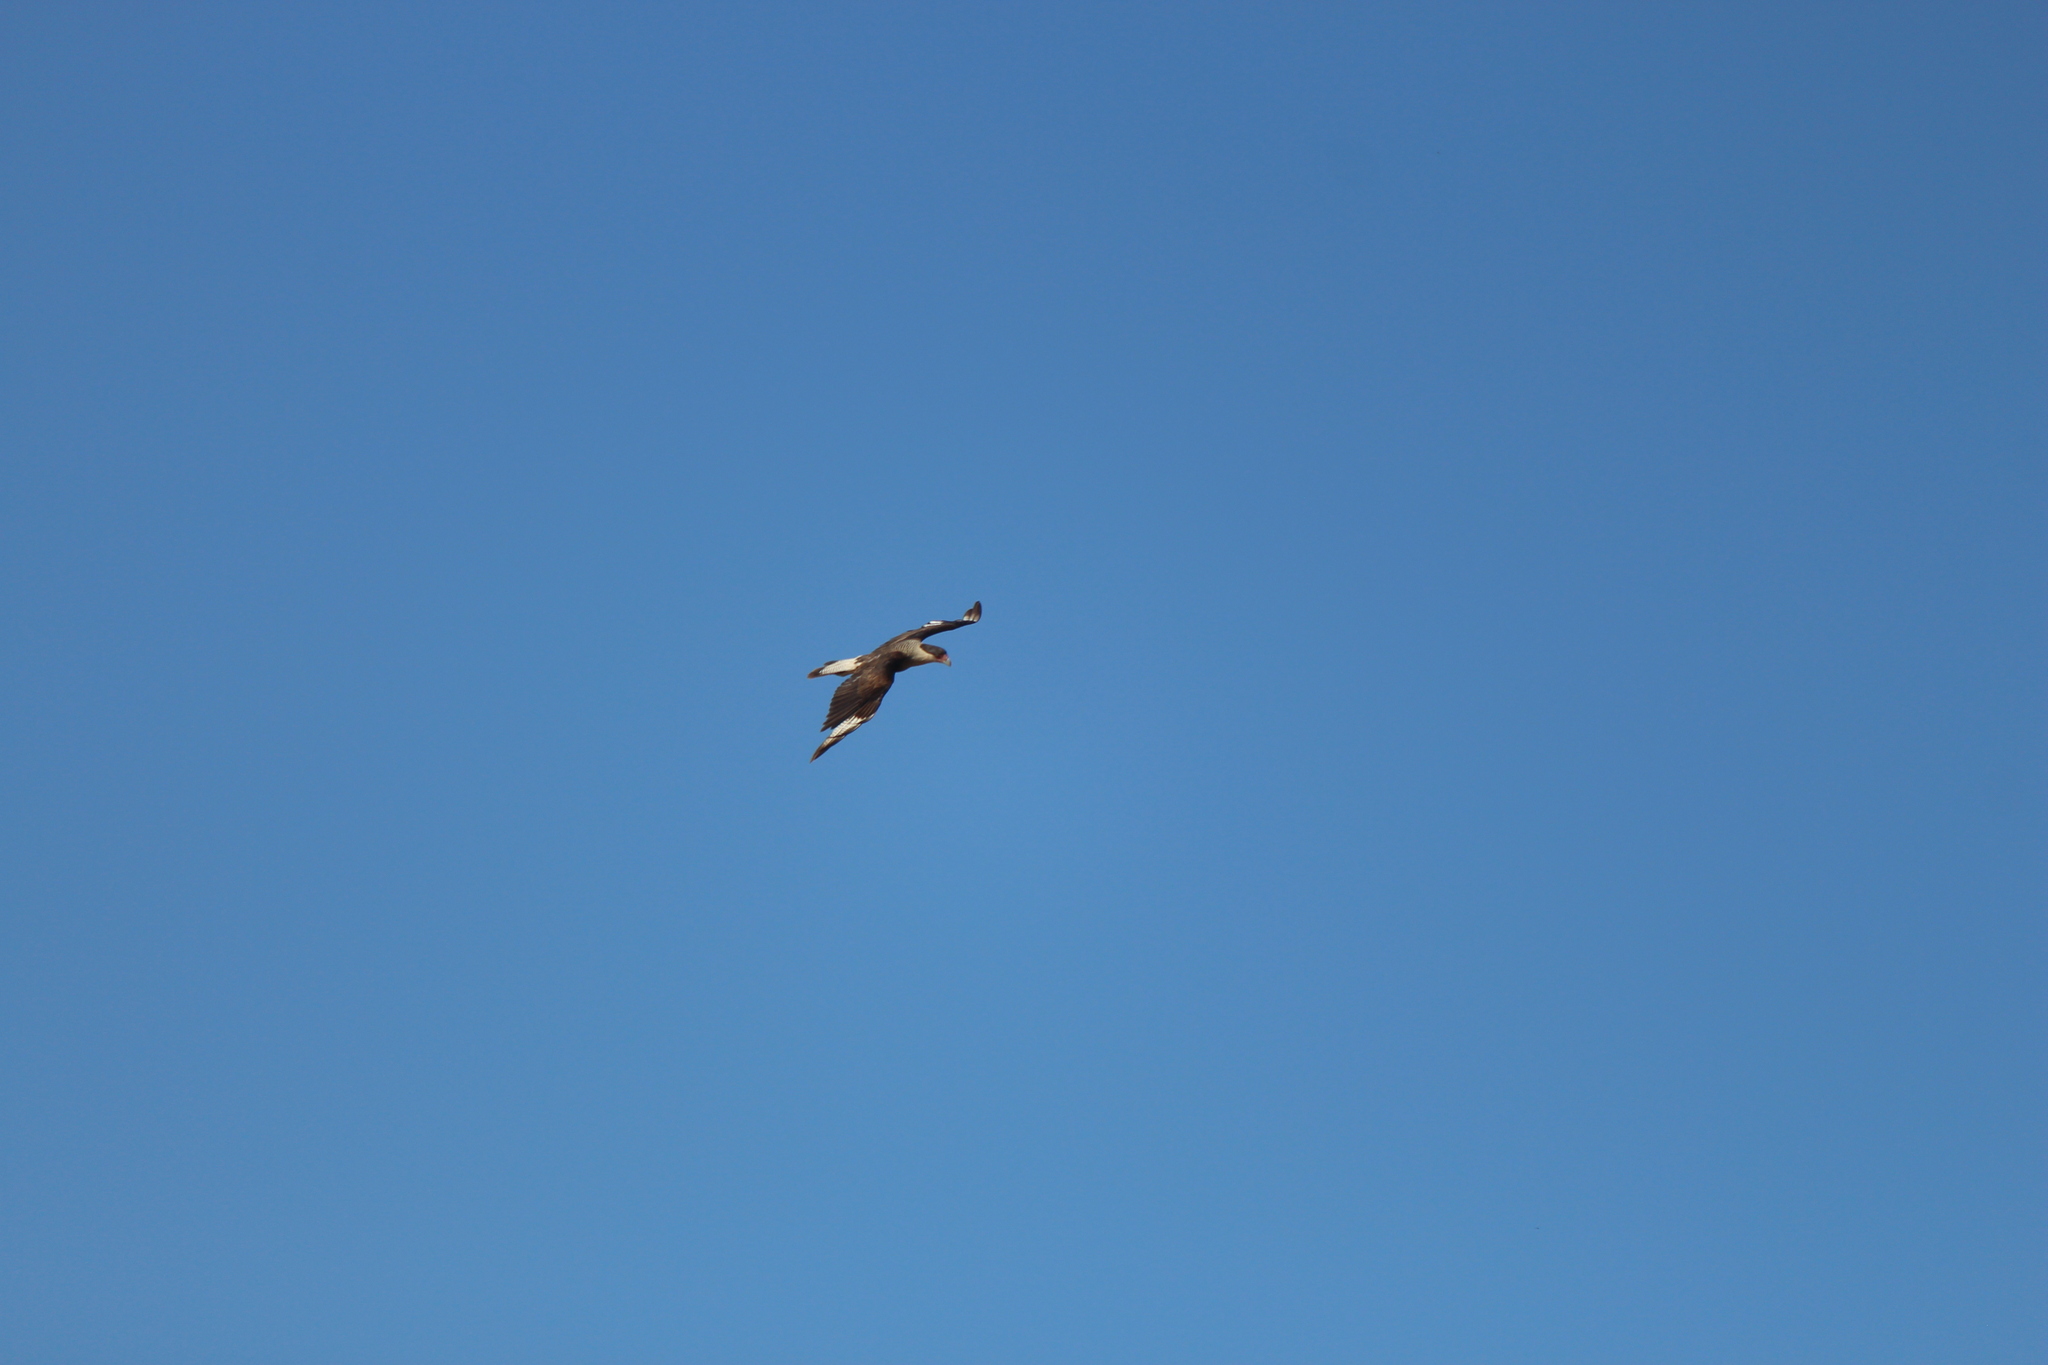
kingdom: Animalia
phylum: Chordata
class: Aves
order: Falconiformes
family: Falconidae
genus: Caracara
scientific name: Caracara plancus
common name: Southern caracara
